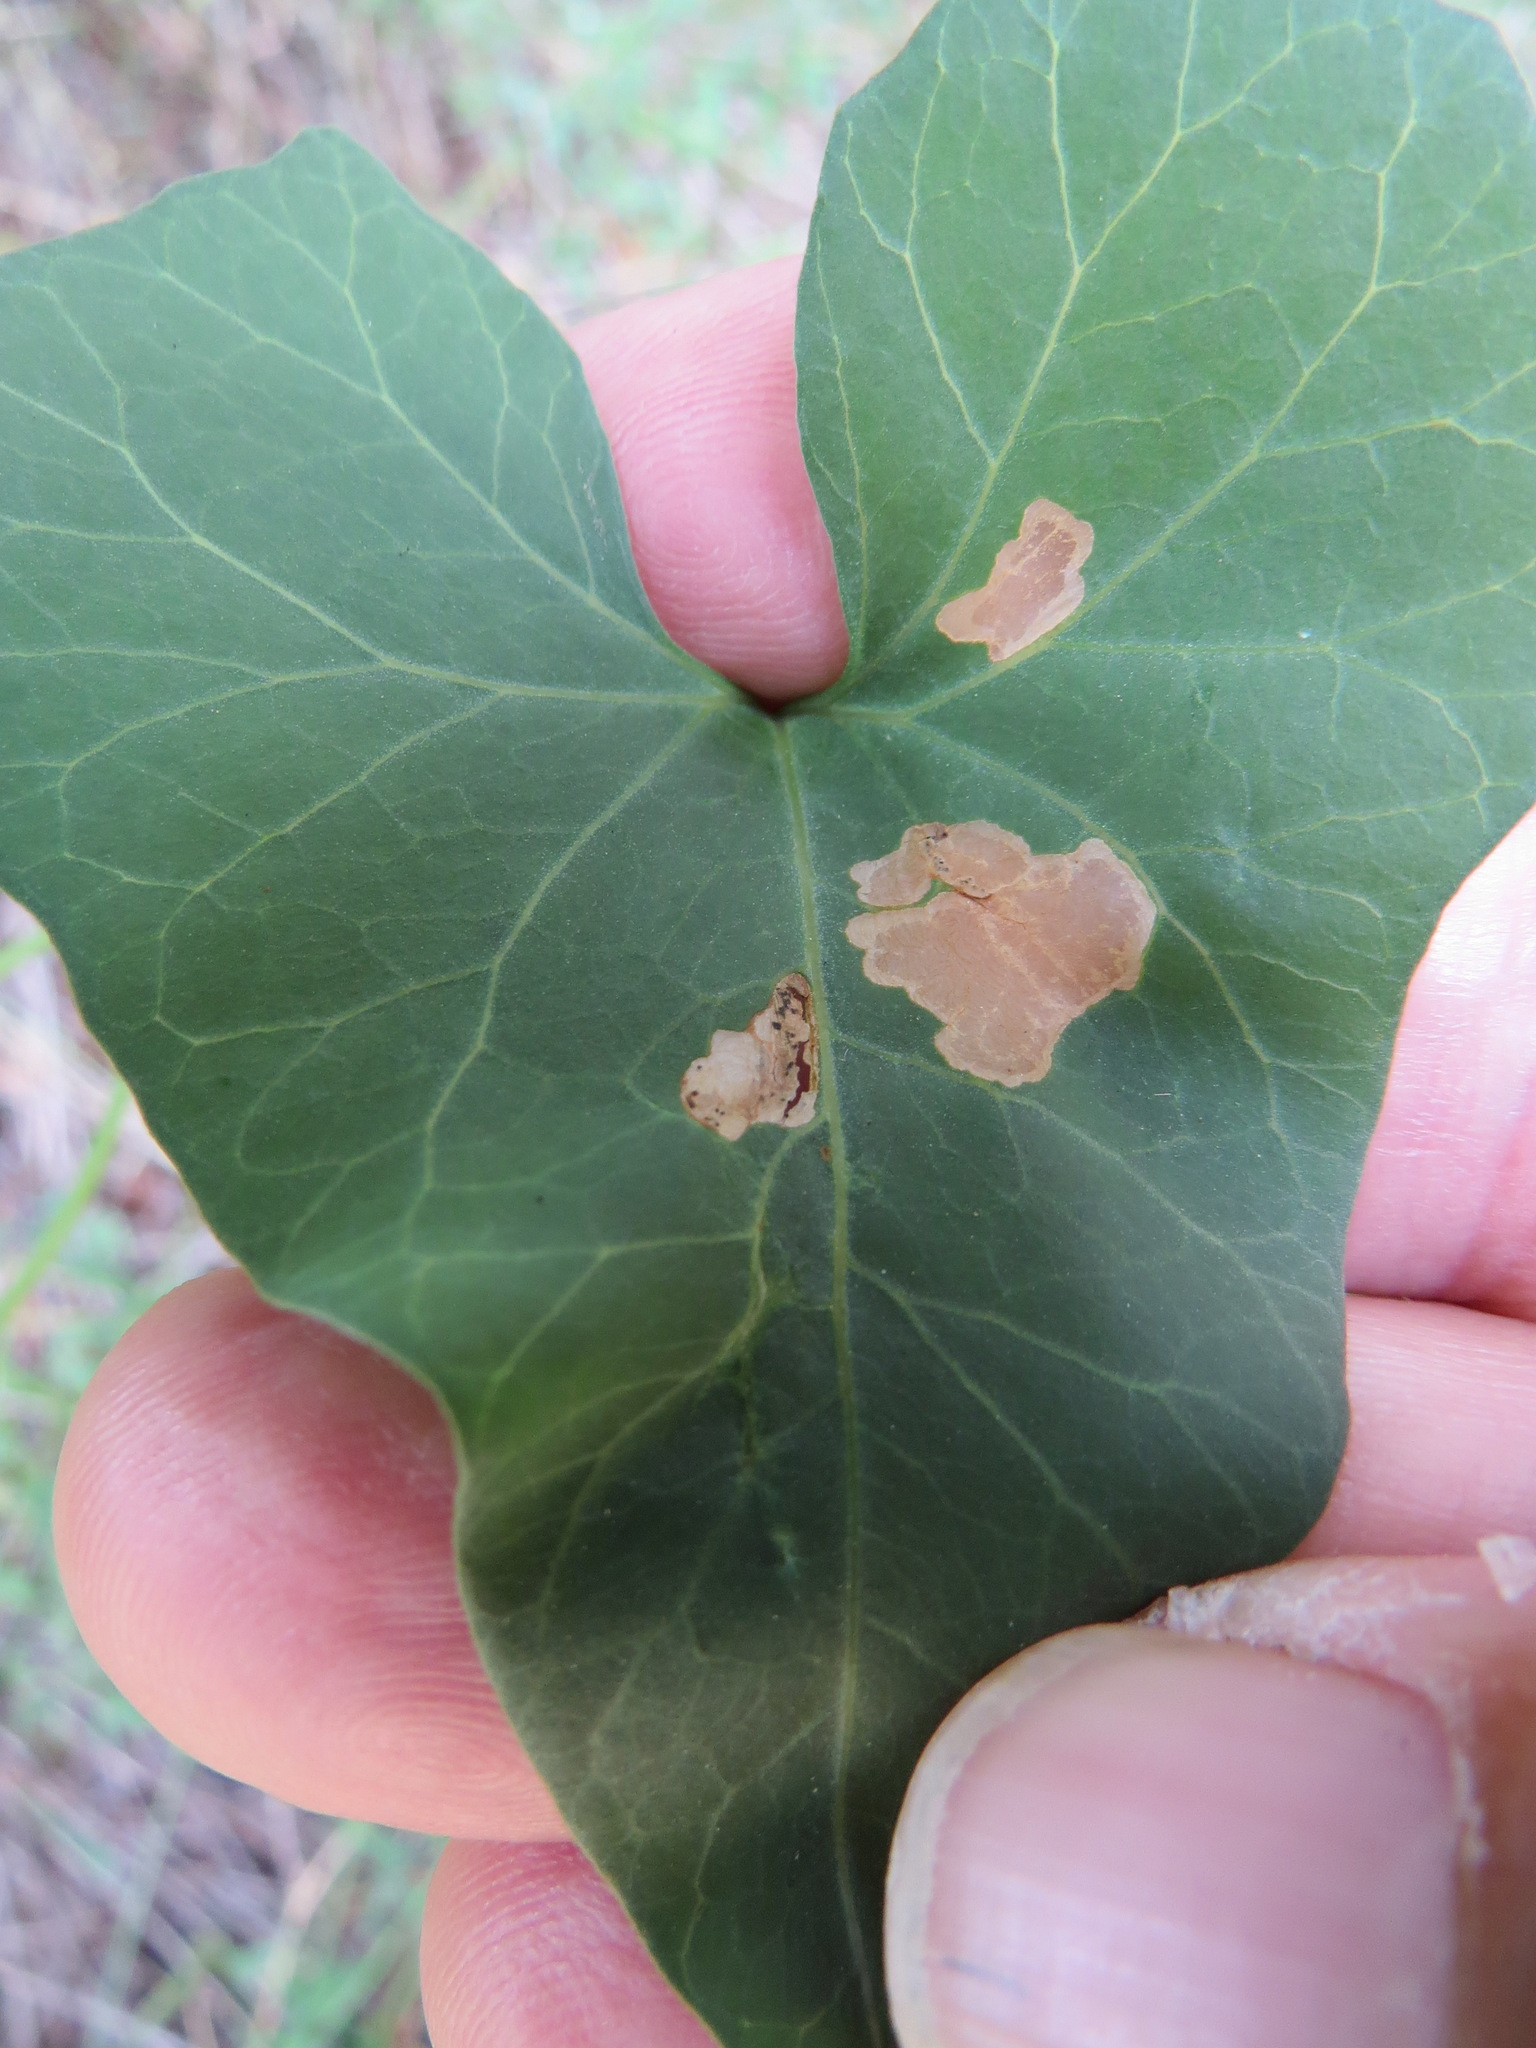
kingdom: Animalia
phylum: Arthropoda
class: Insecta
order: Lepidoptera
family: Bedelliidae
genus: Bedellia
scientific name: Bedellia somnulentella
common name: Morning-glory leafminer moth
